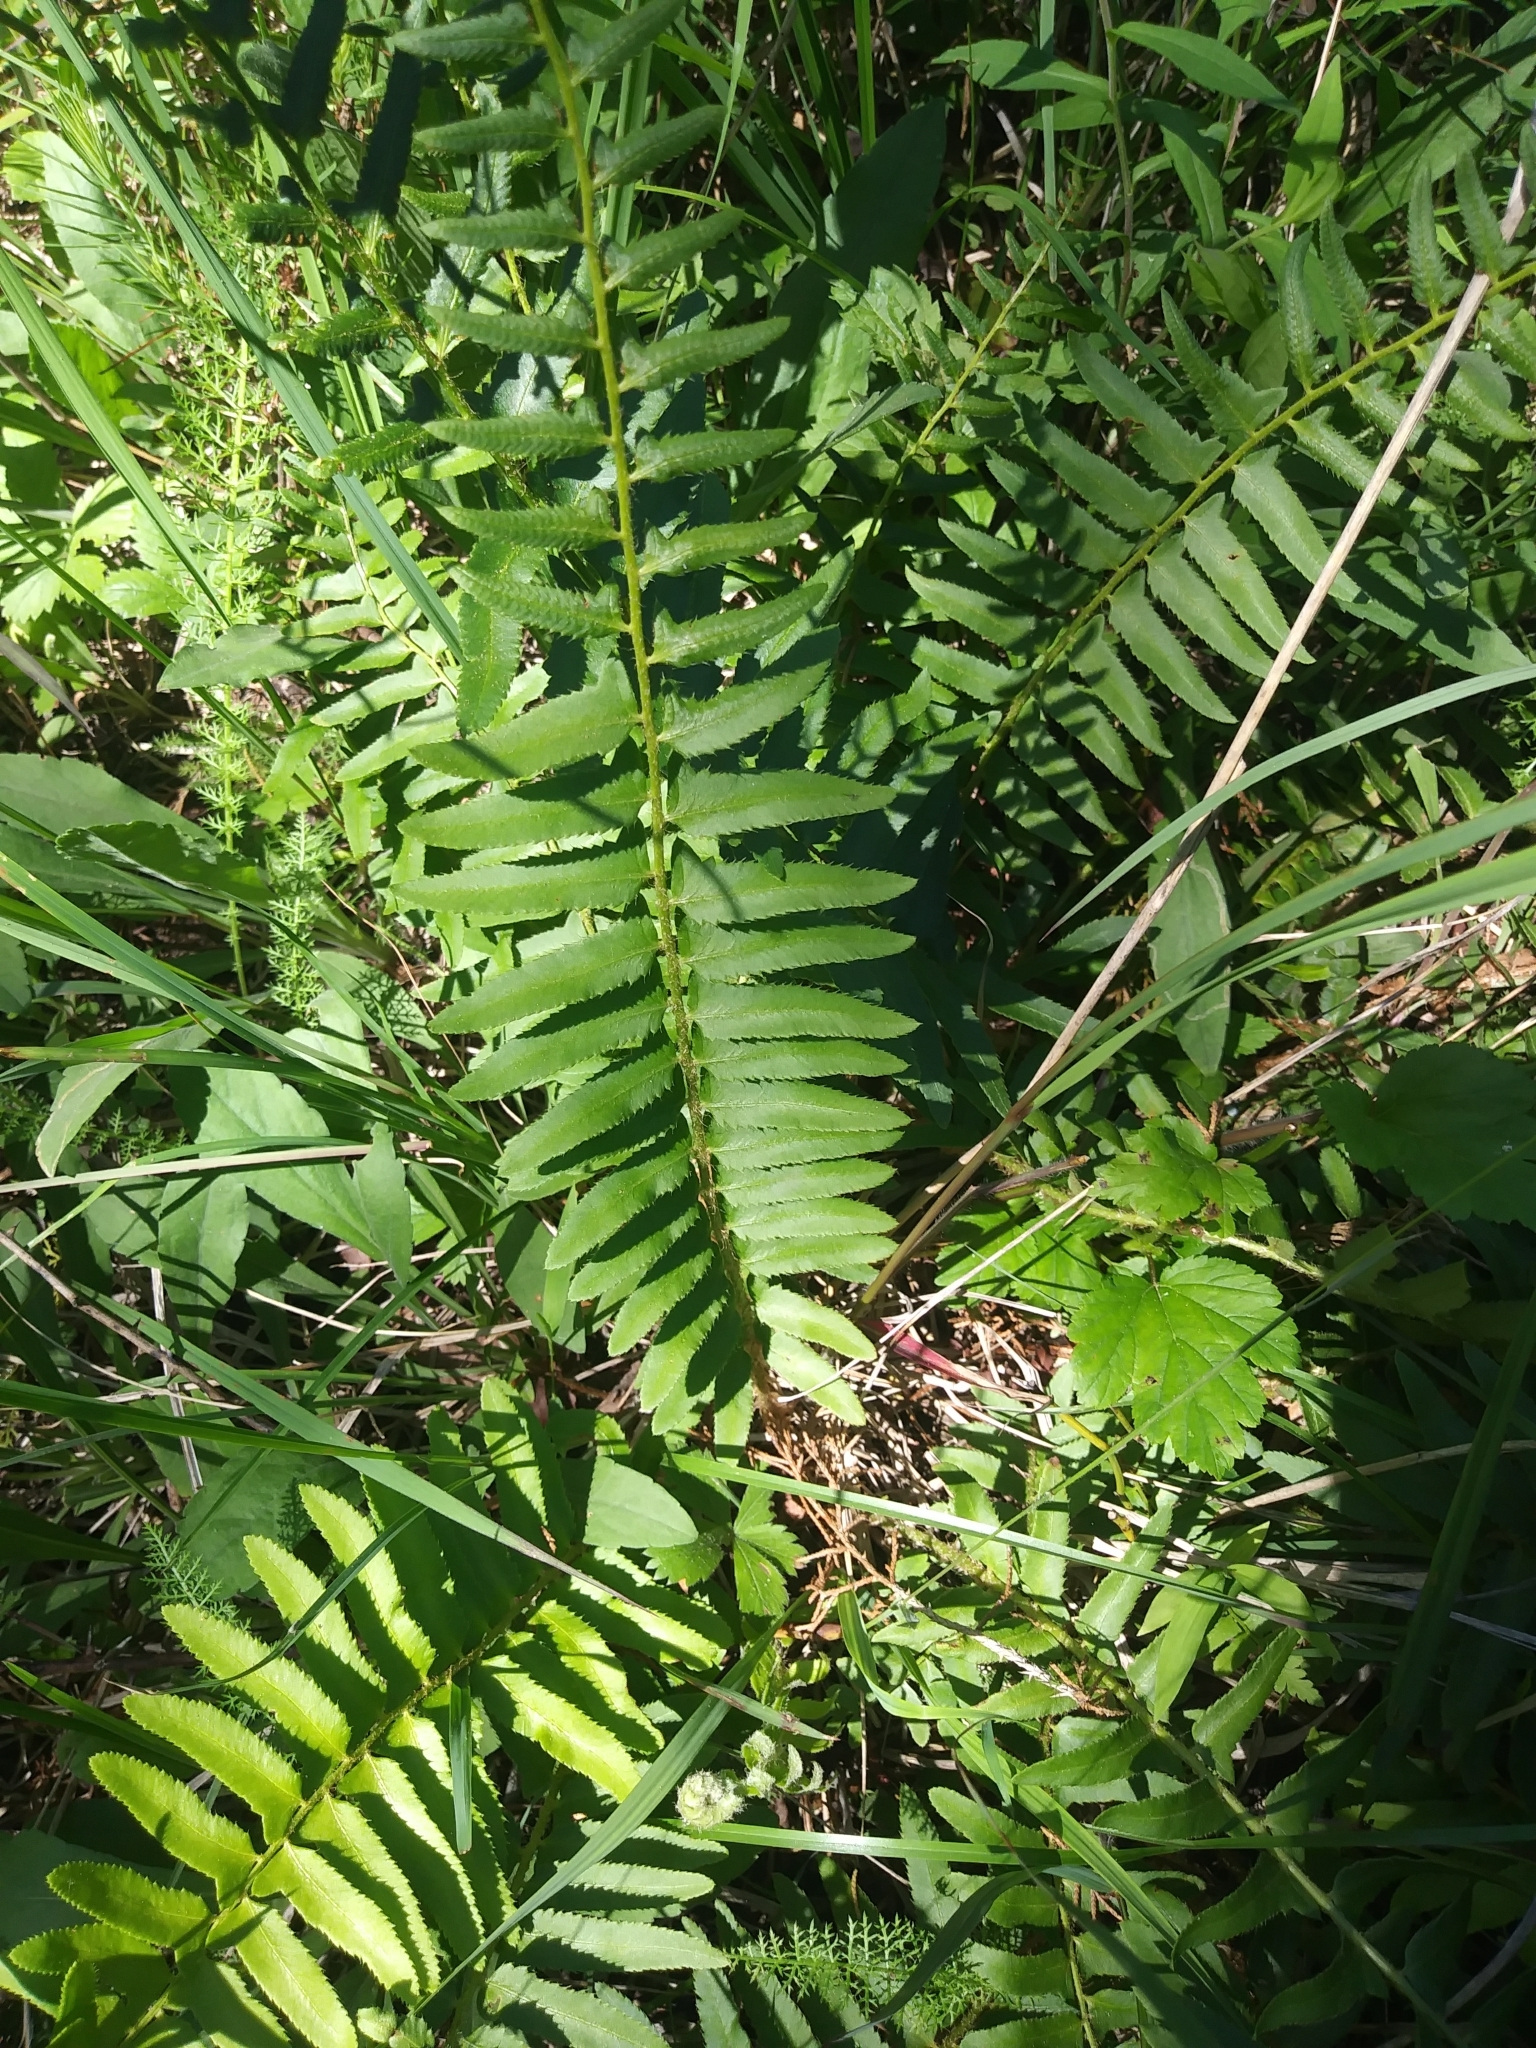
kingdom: Plantae
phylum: Tracheophyta
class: Polypodiopsida
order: Polypodiales
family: Dryopteridaceae
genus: Polystichum
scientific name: Polystichum acrostichoides
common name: Christmas fern
